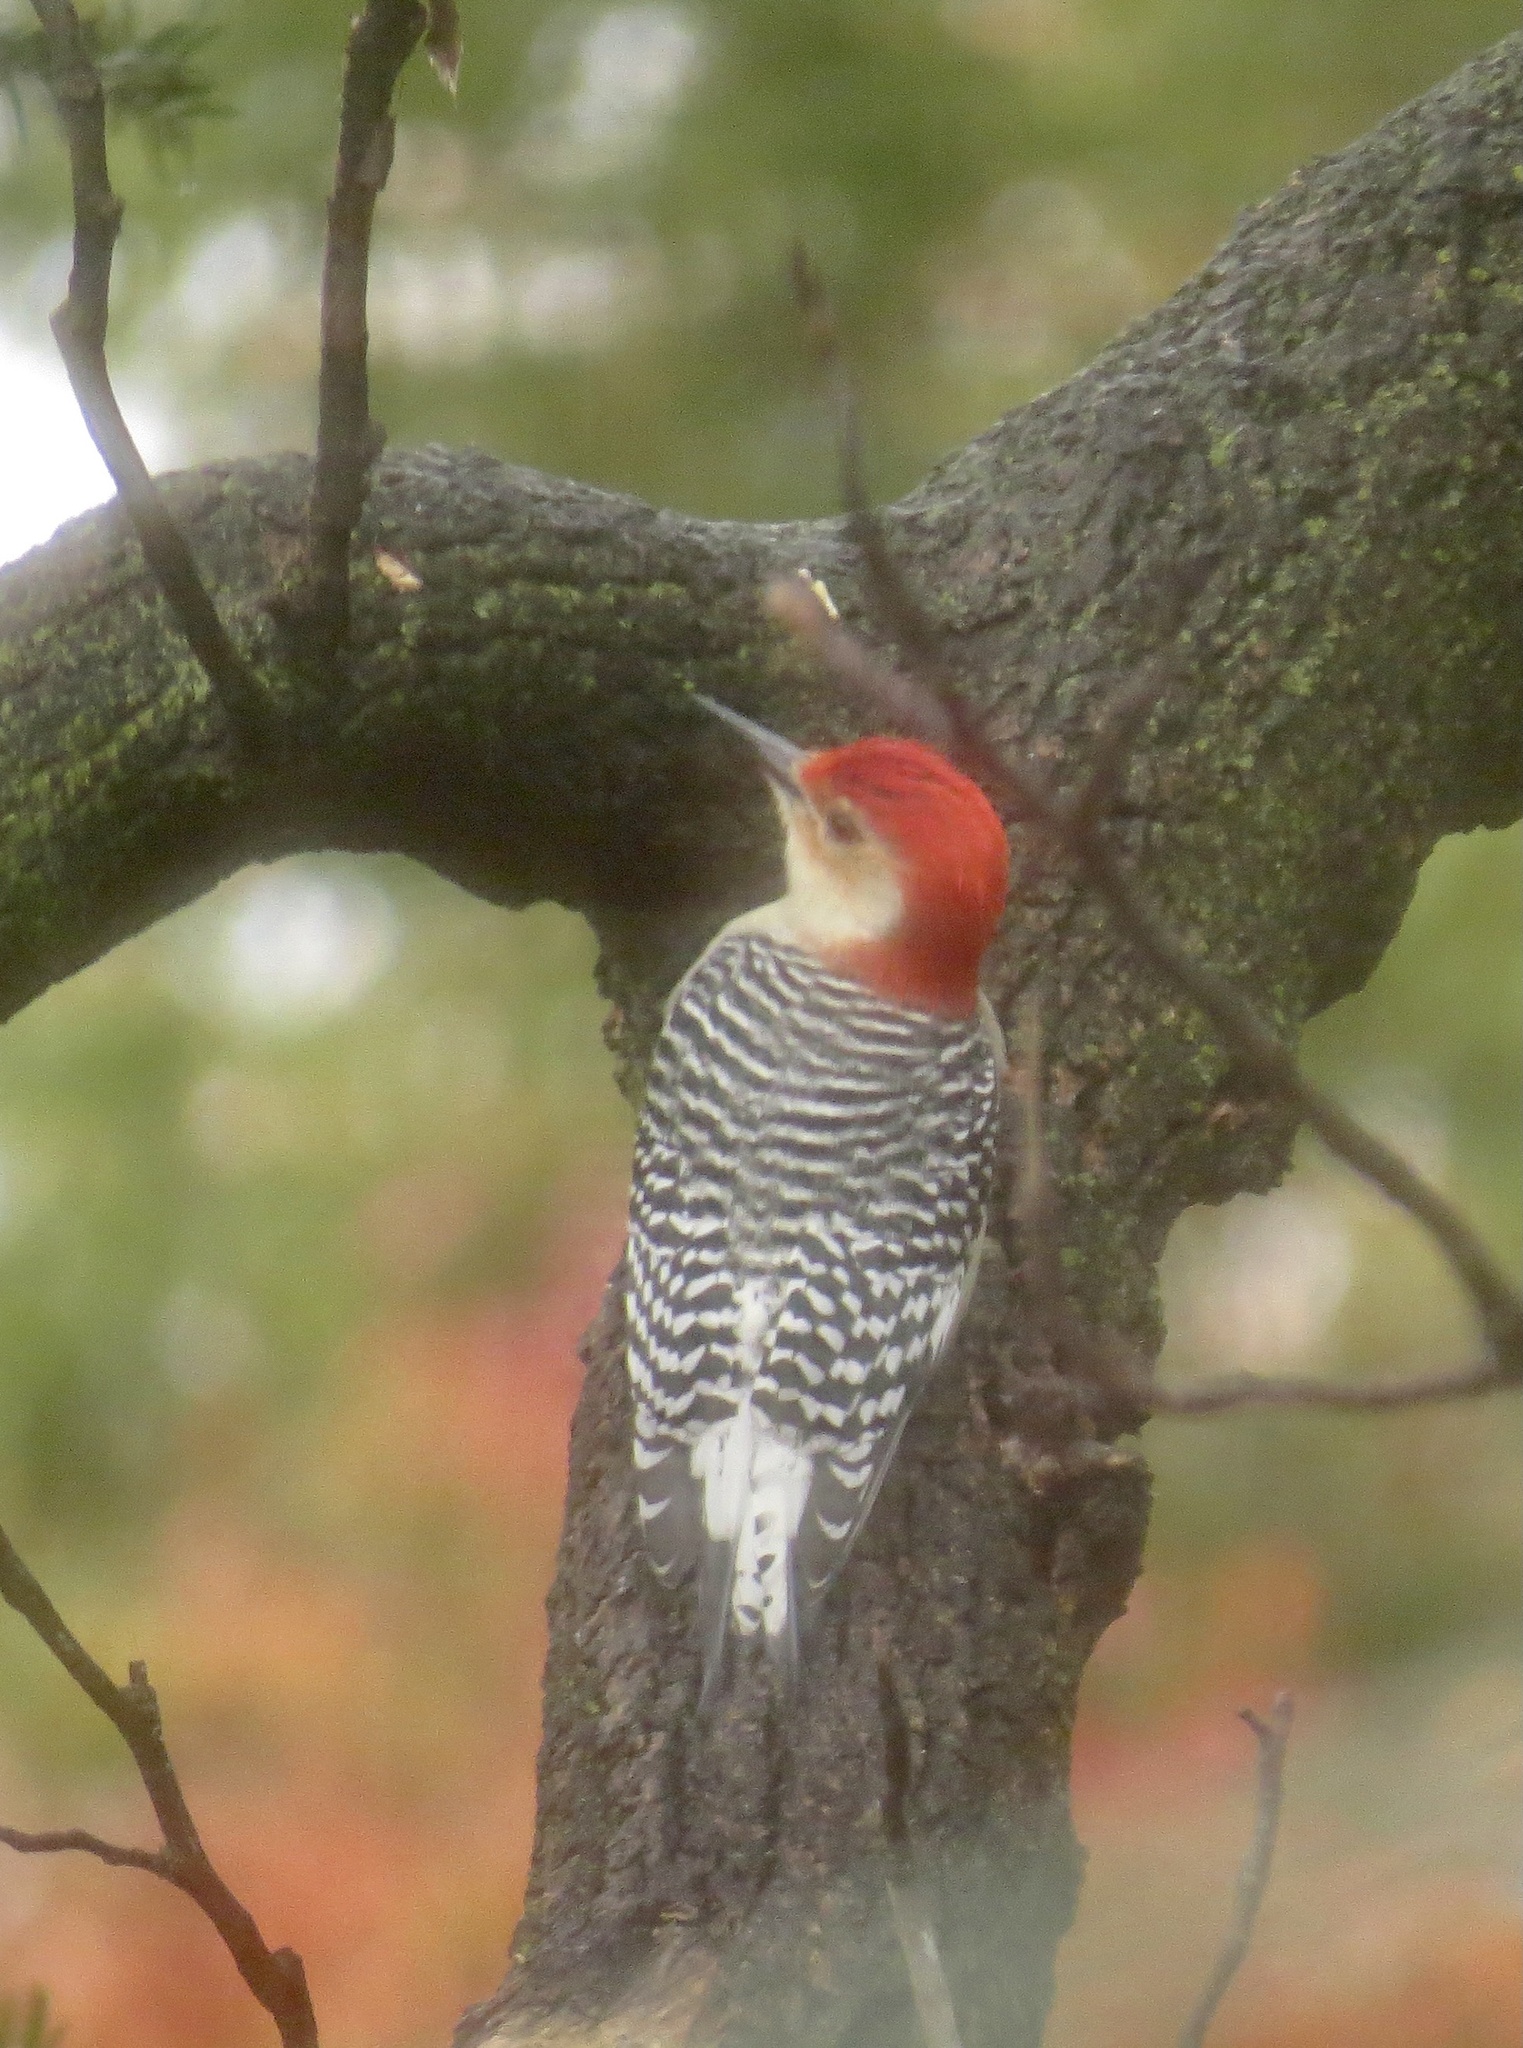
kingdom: Animalia
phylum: Chordata
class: Aves
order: Piciformes
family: Picidae
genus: Melanerpes
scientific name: Melanerpes carolinus
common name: Red-bellied woodpecker
